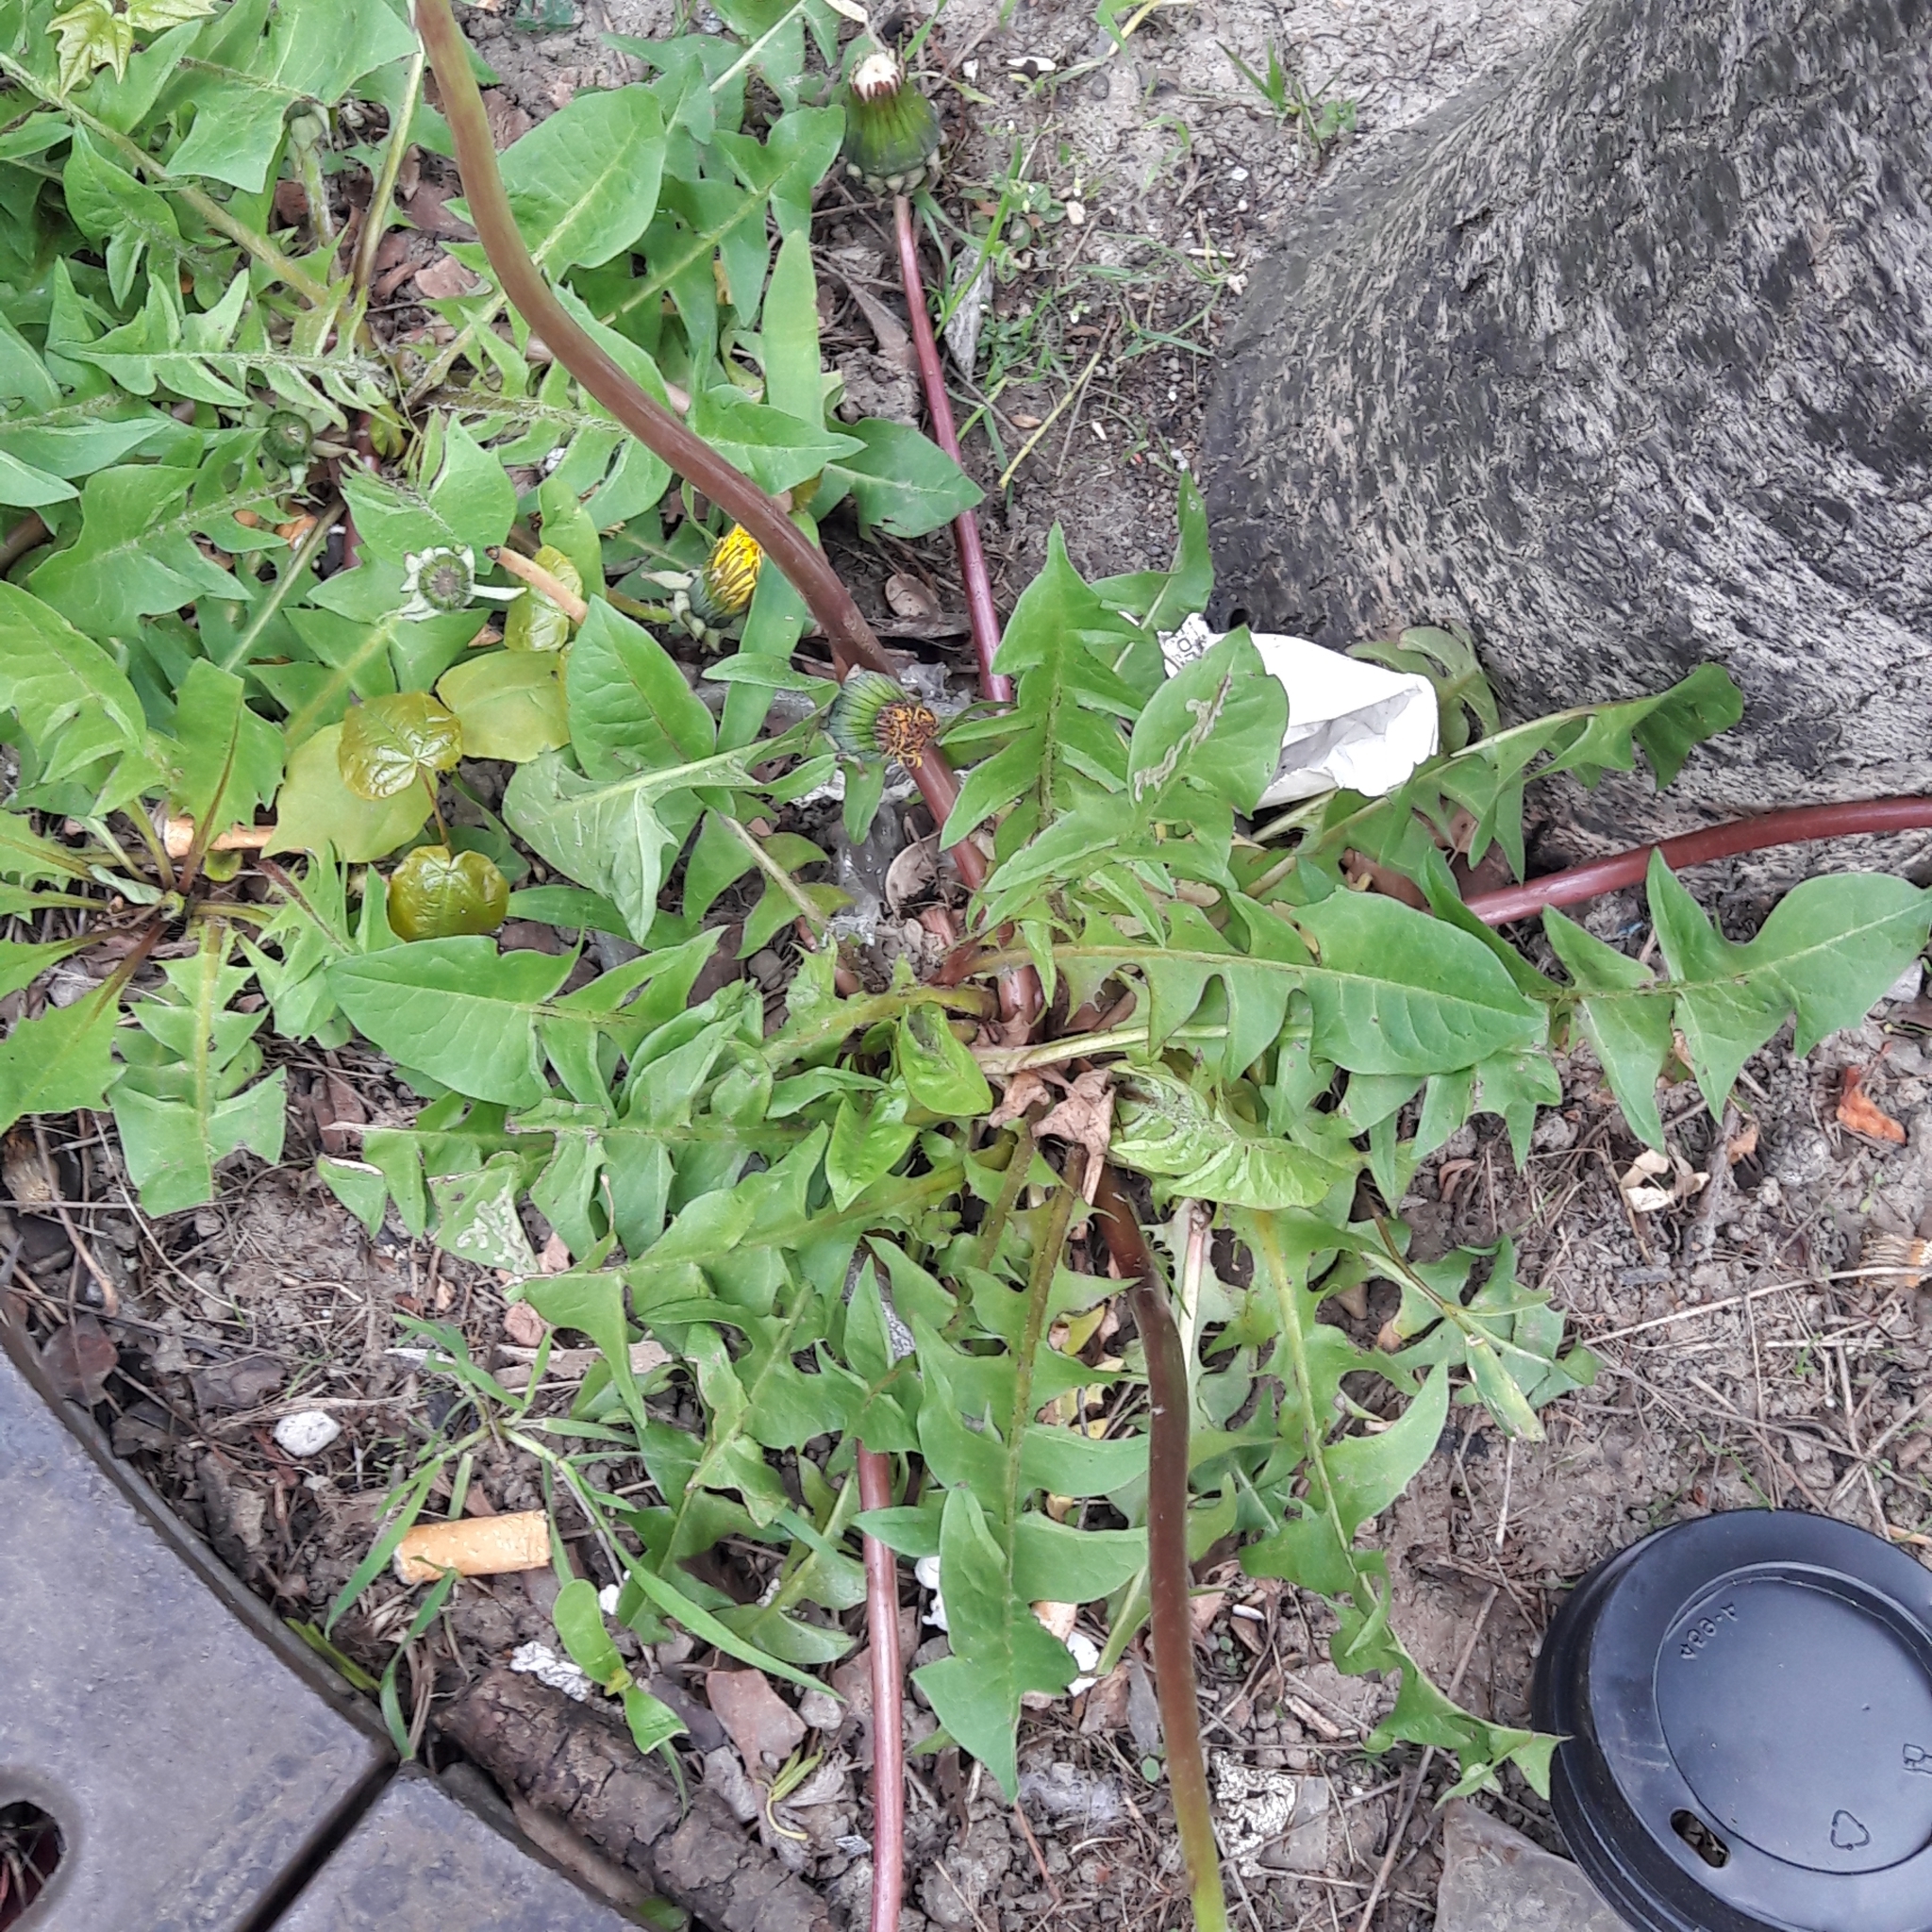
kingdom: Plantae
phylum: Tracheophyta
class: Magnoliopsida
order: Asterales
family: Asteraceae
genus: Taraxacum
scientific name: Taraxacum officinale
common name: Common dandelion
